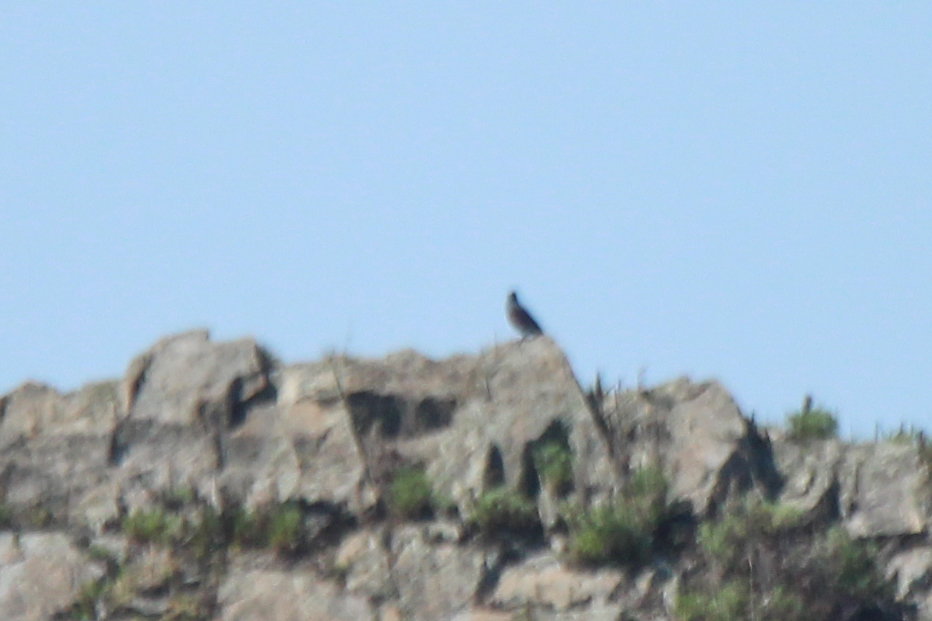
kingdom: Animalia
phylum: Chordata
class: Aves
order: Passeriformes
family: Muscicapidae
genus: Monticola
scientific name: Monticola solitarius
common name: Blue rock thrush
